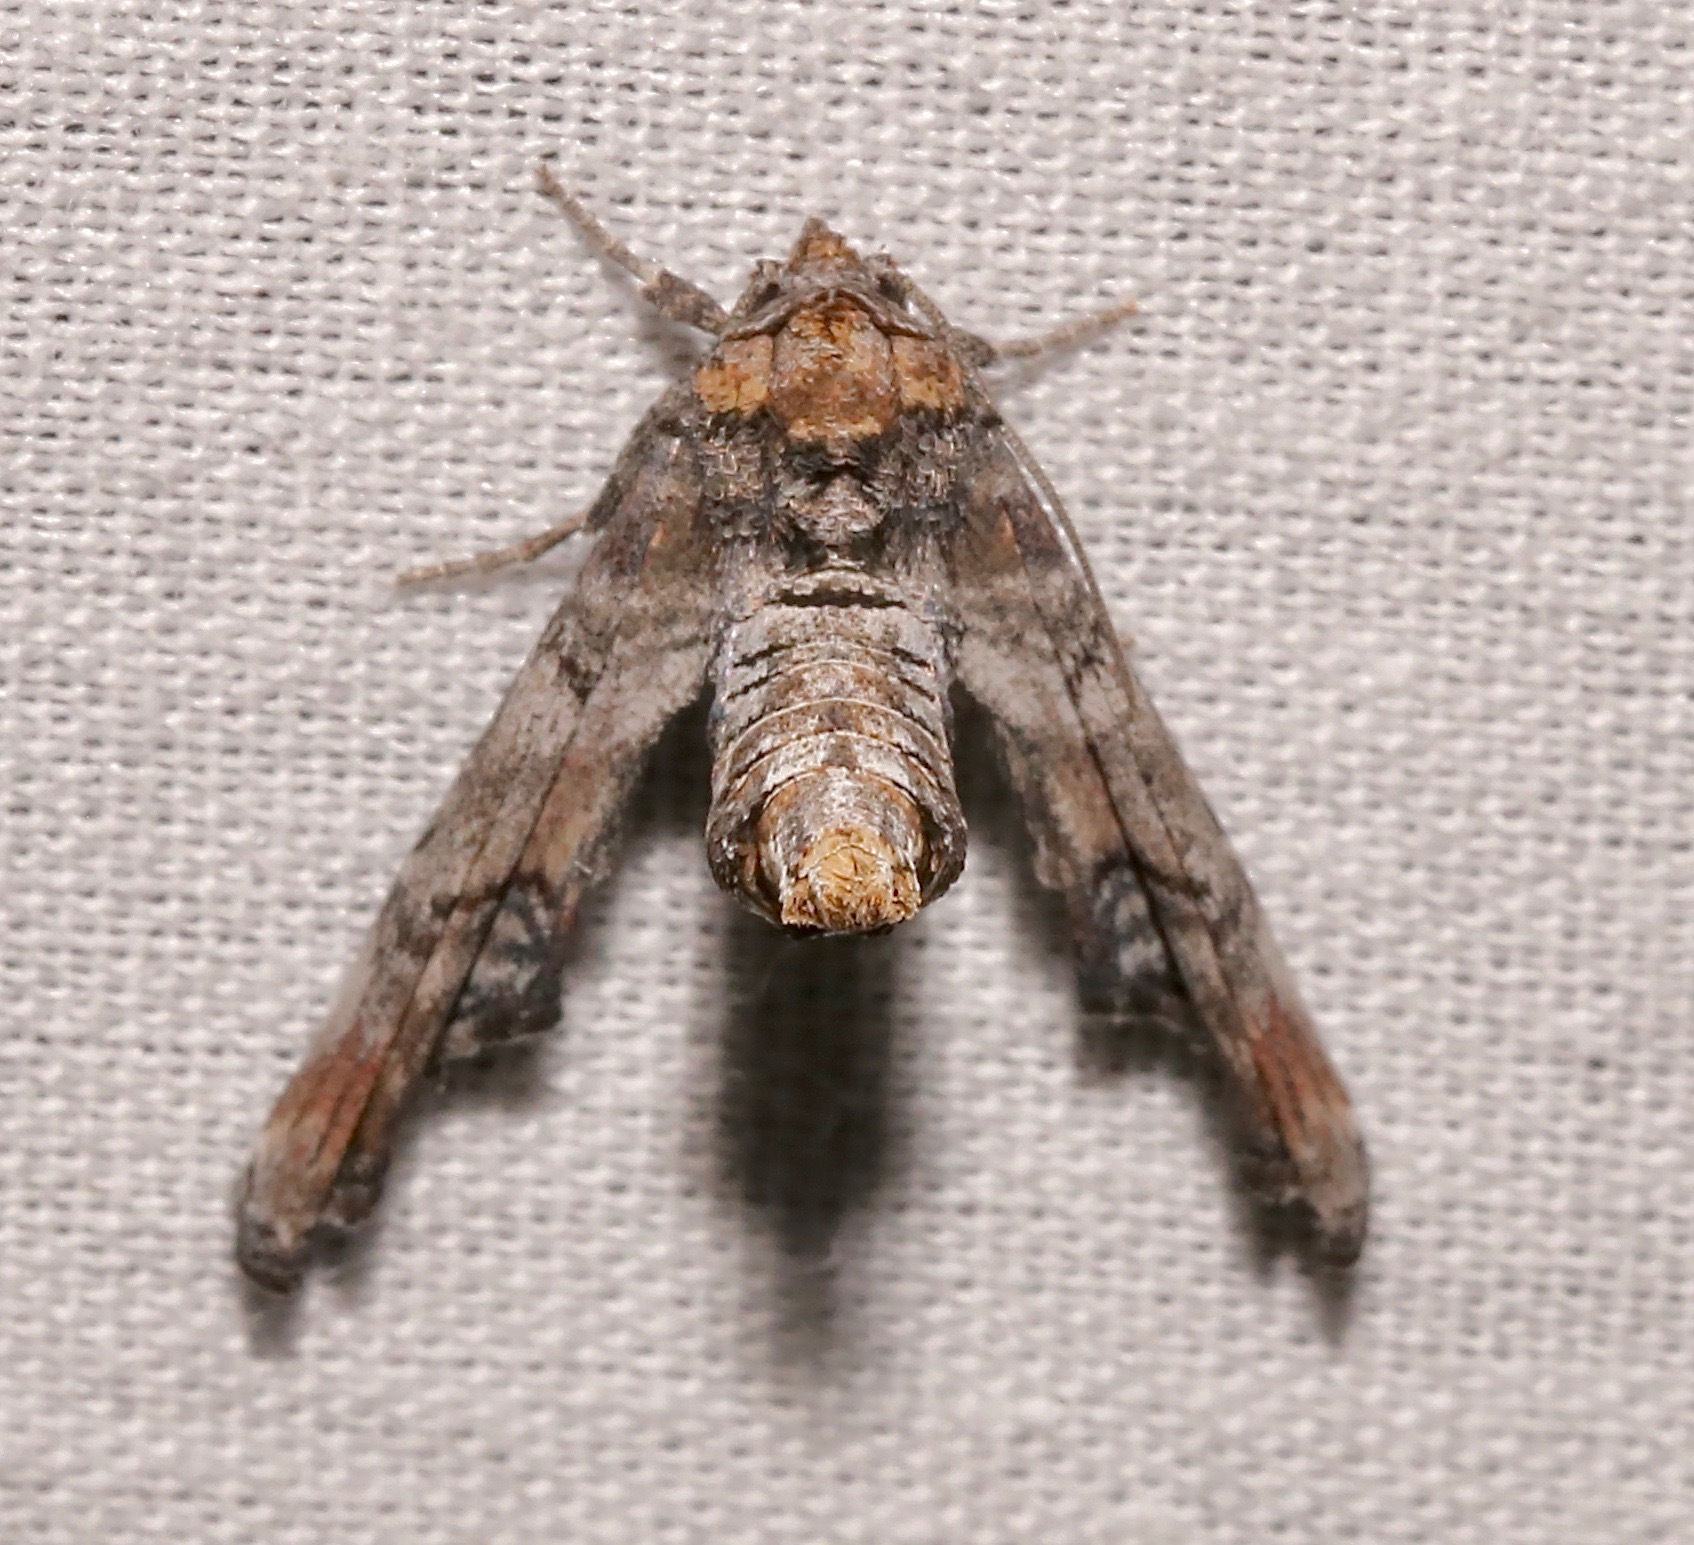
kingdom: Animalia
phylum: Arthropoda
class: Insecta
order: Lepidoptera
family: Euteliidae
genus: Marathyssa
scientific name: Marathyssa inficita
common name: Dark marathyssa moth
